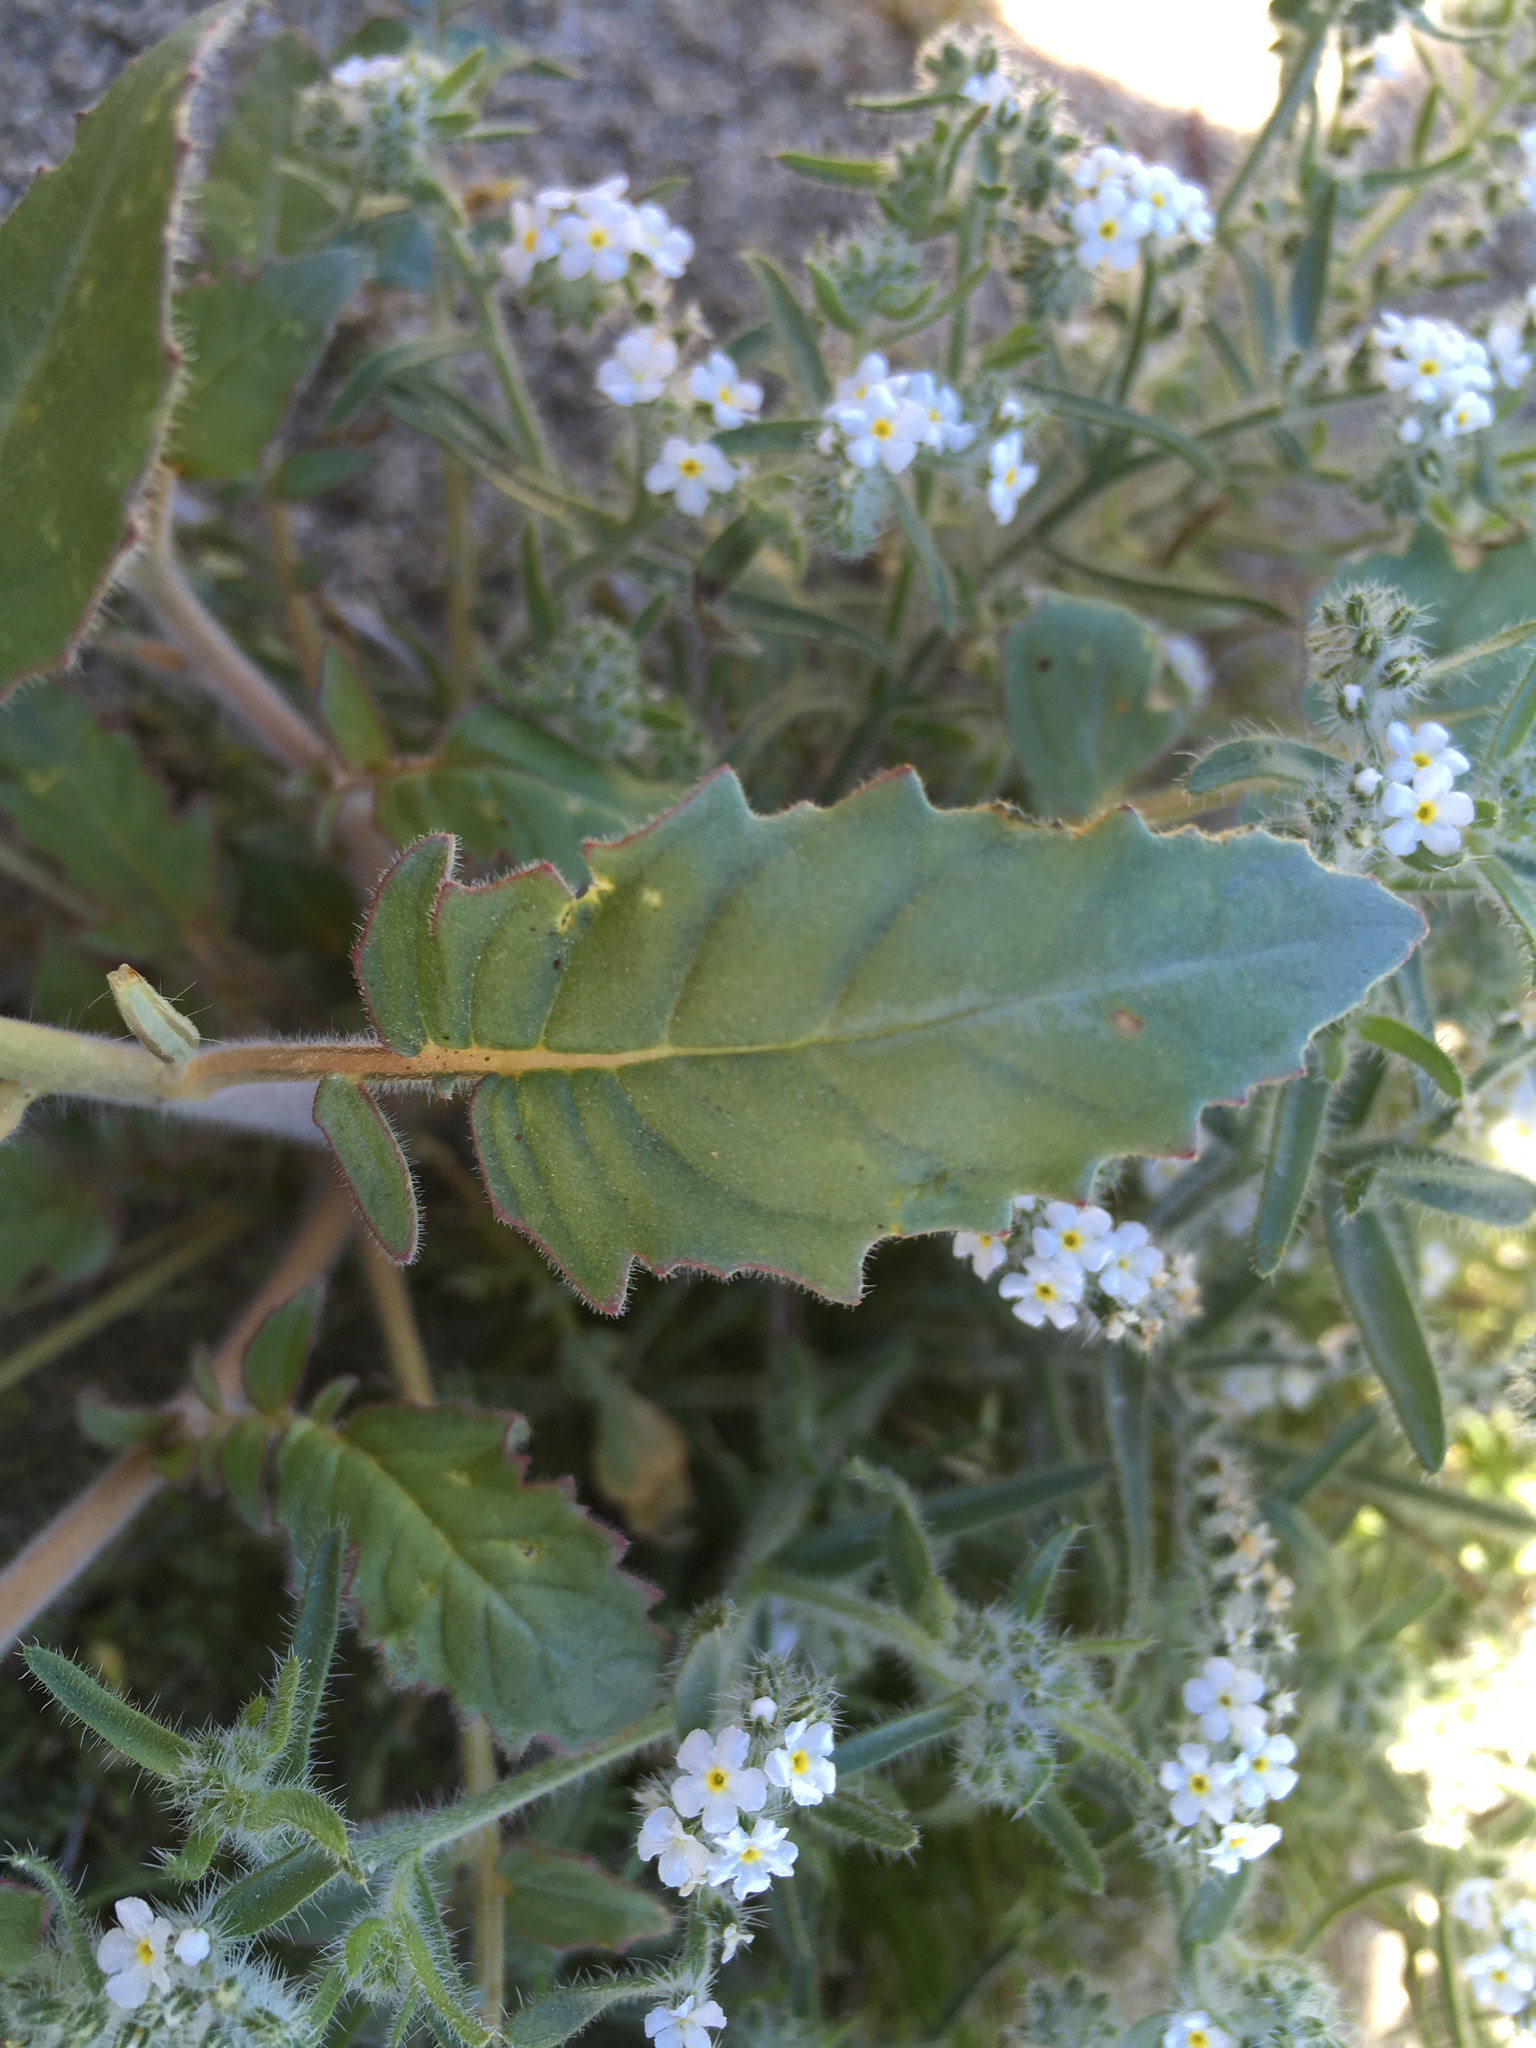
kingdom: Plantae
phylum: Tracheophyta
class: Magnoliopsida
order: Myrtales
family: Onagraceae
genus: Chylismia
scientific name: Chylismia claviformis
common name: Browneyes
